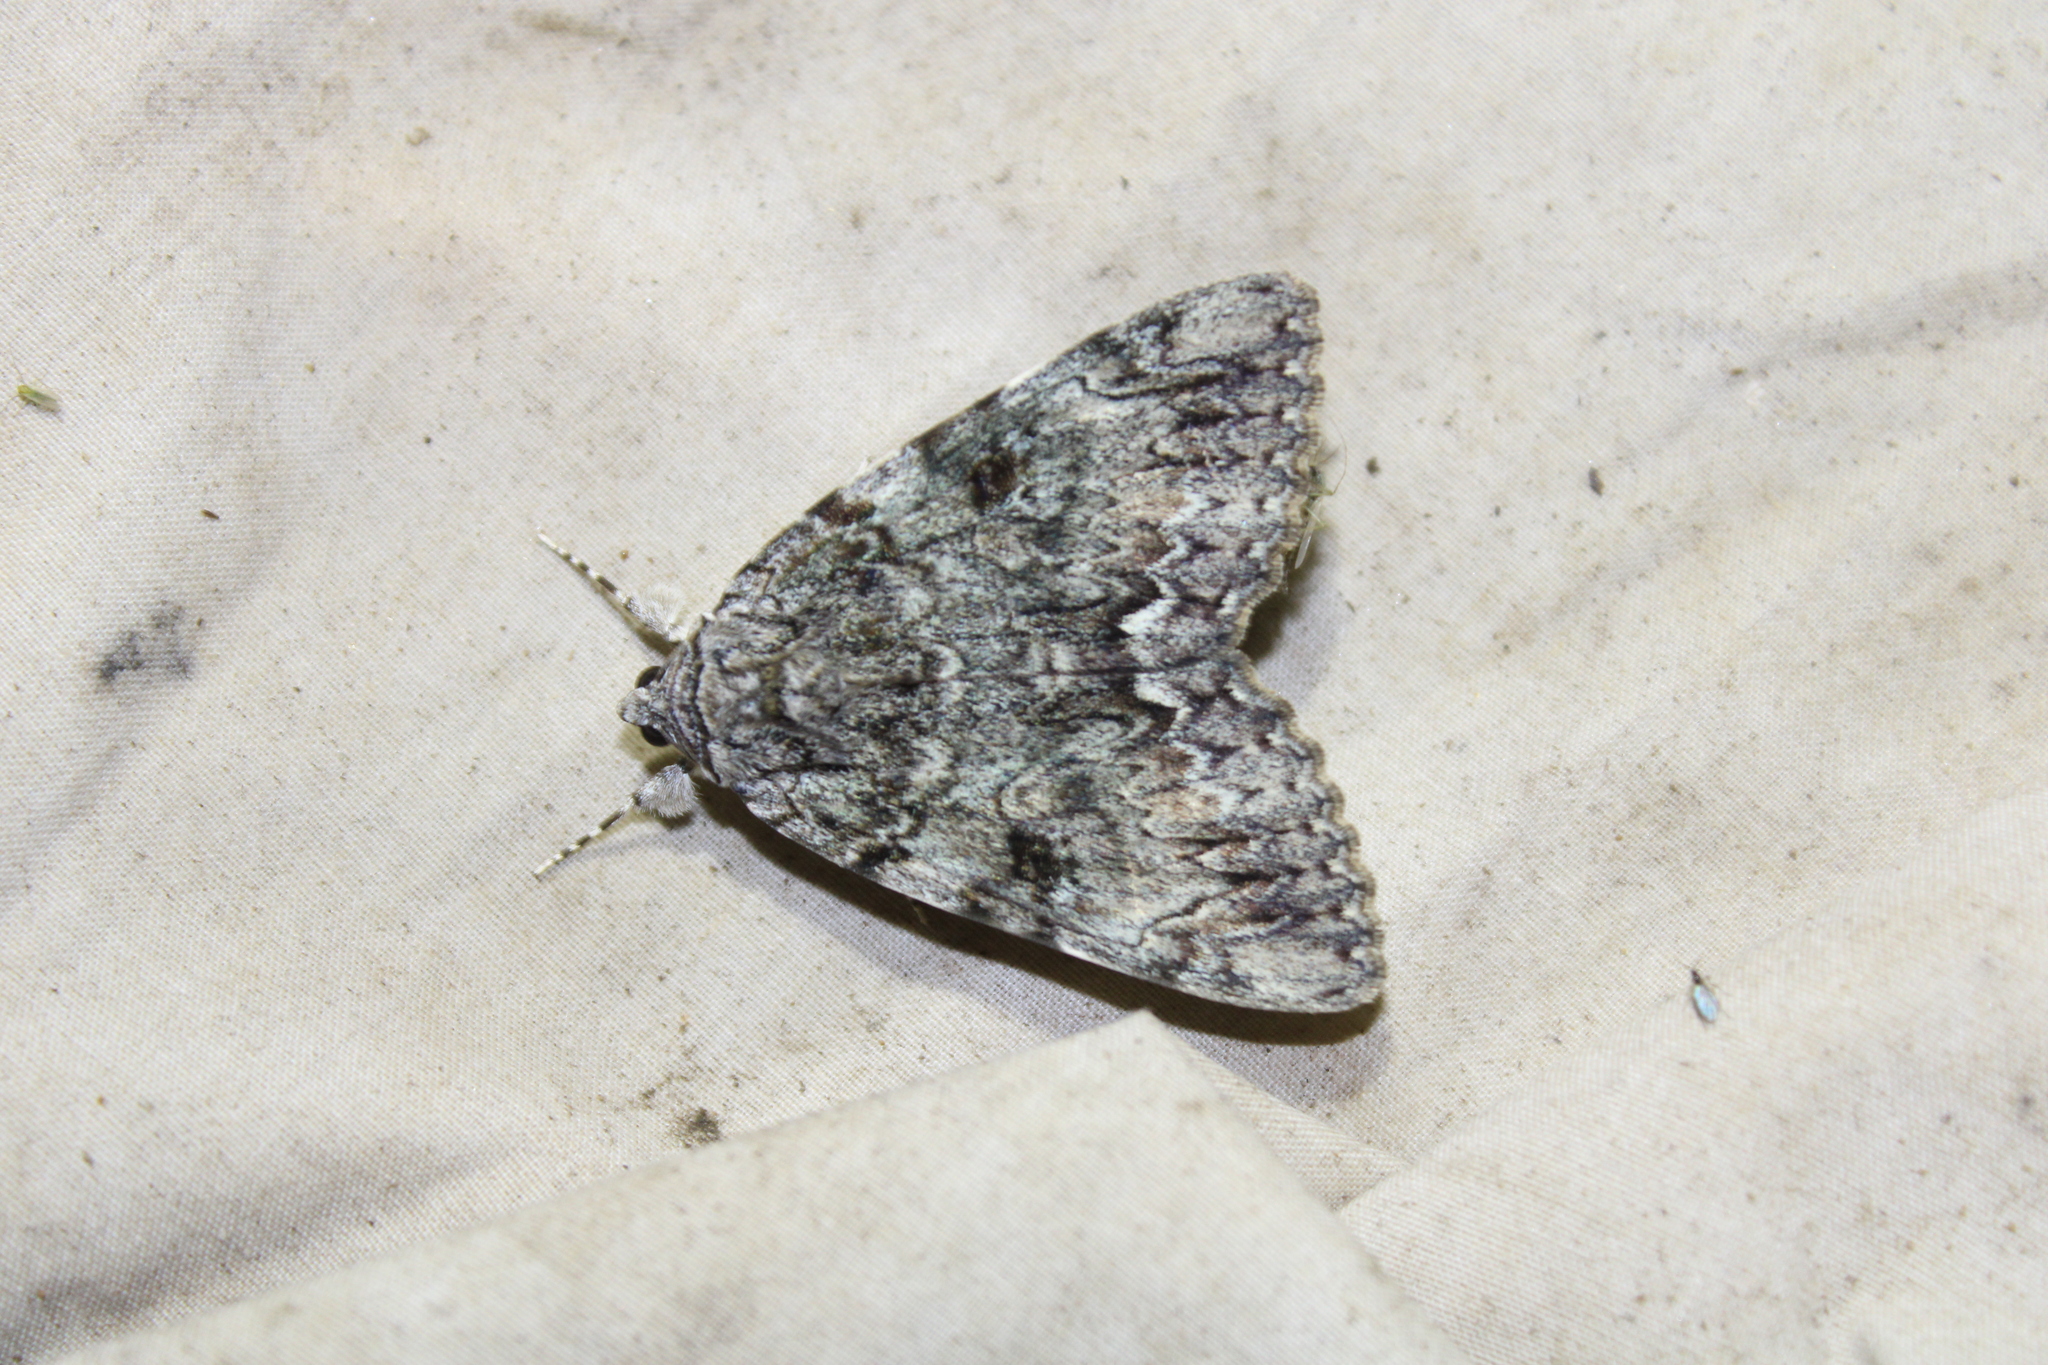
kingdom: Animalia
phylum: Arthropoda
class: Insecta
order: Lepidoptera
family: Erebidae
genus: Catocala
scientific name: Catocala palaeogama
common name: Oldwife underwing
